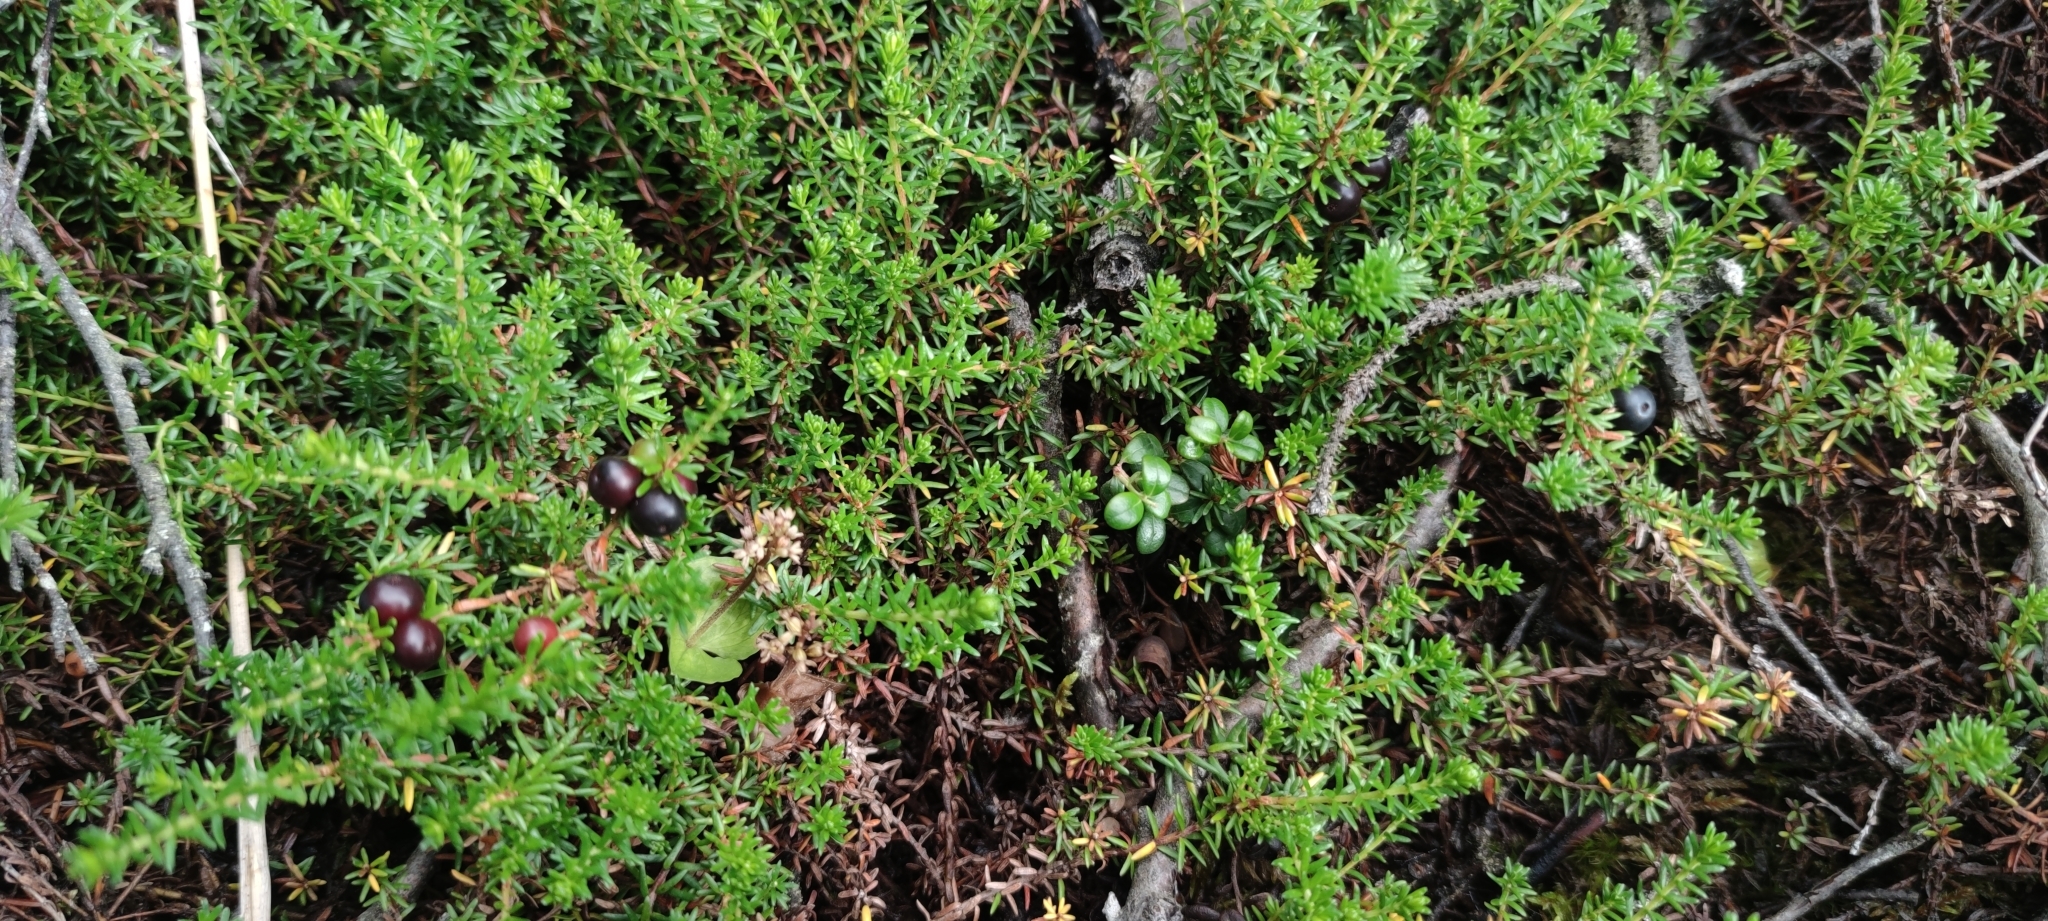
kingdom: Plantae
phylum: Tracheophyta
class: Magnoliopsida
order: Ericales
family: Ericaceae
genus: Empetrum
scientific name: Empetrum nigrum
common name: Black crowberry
